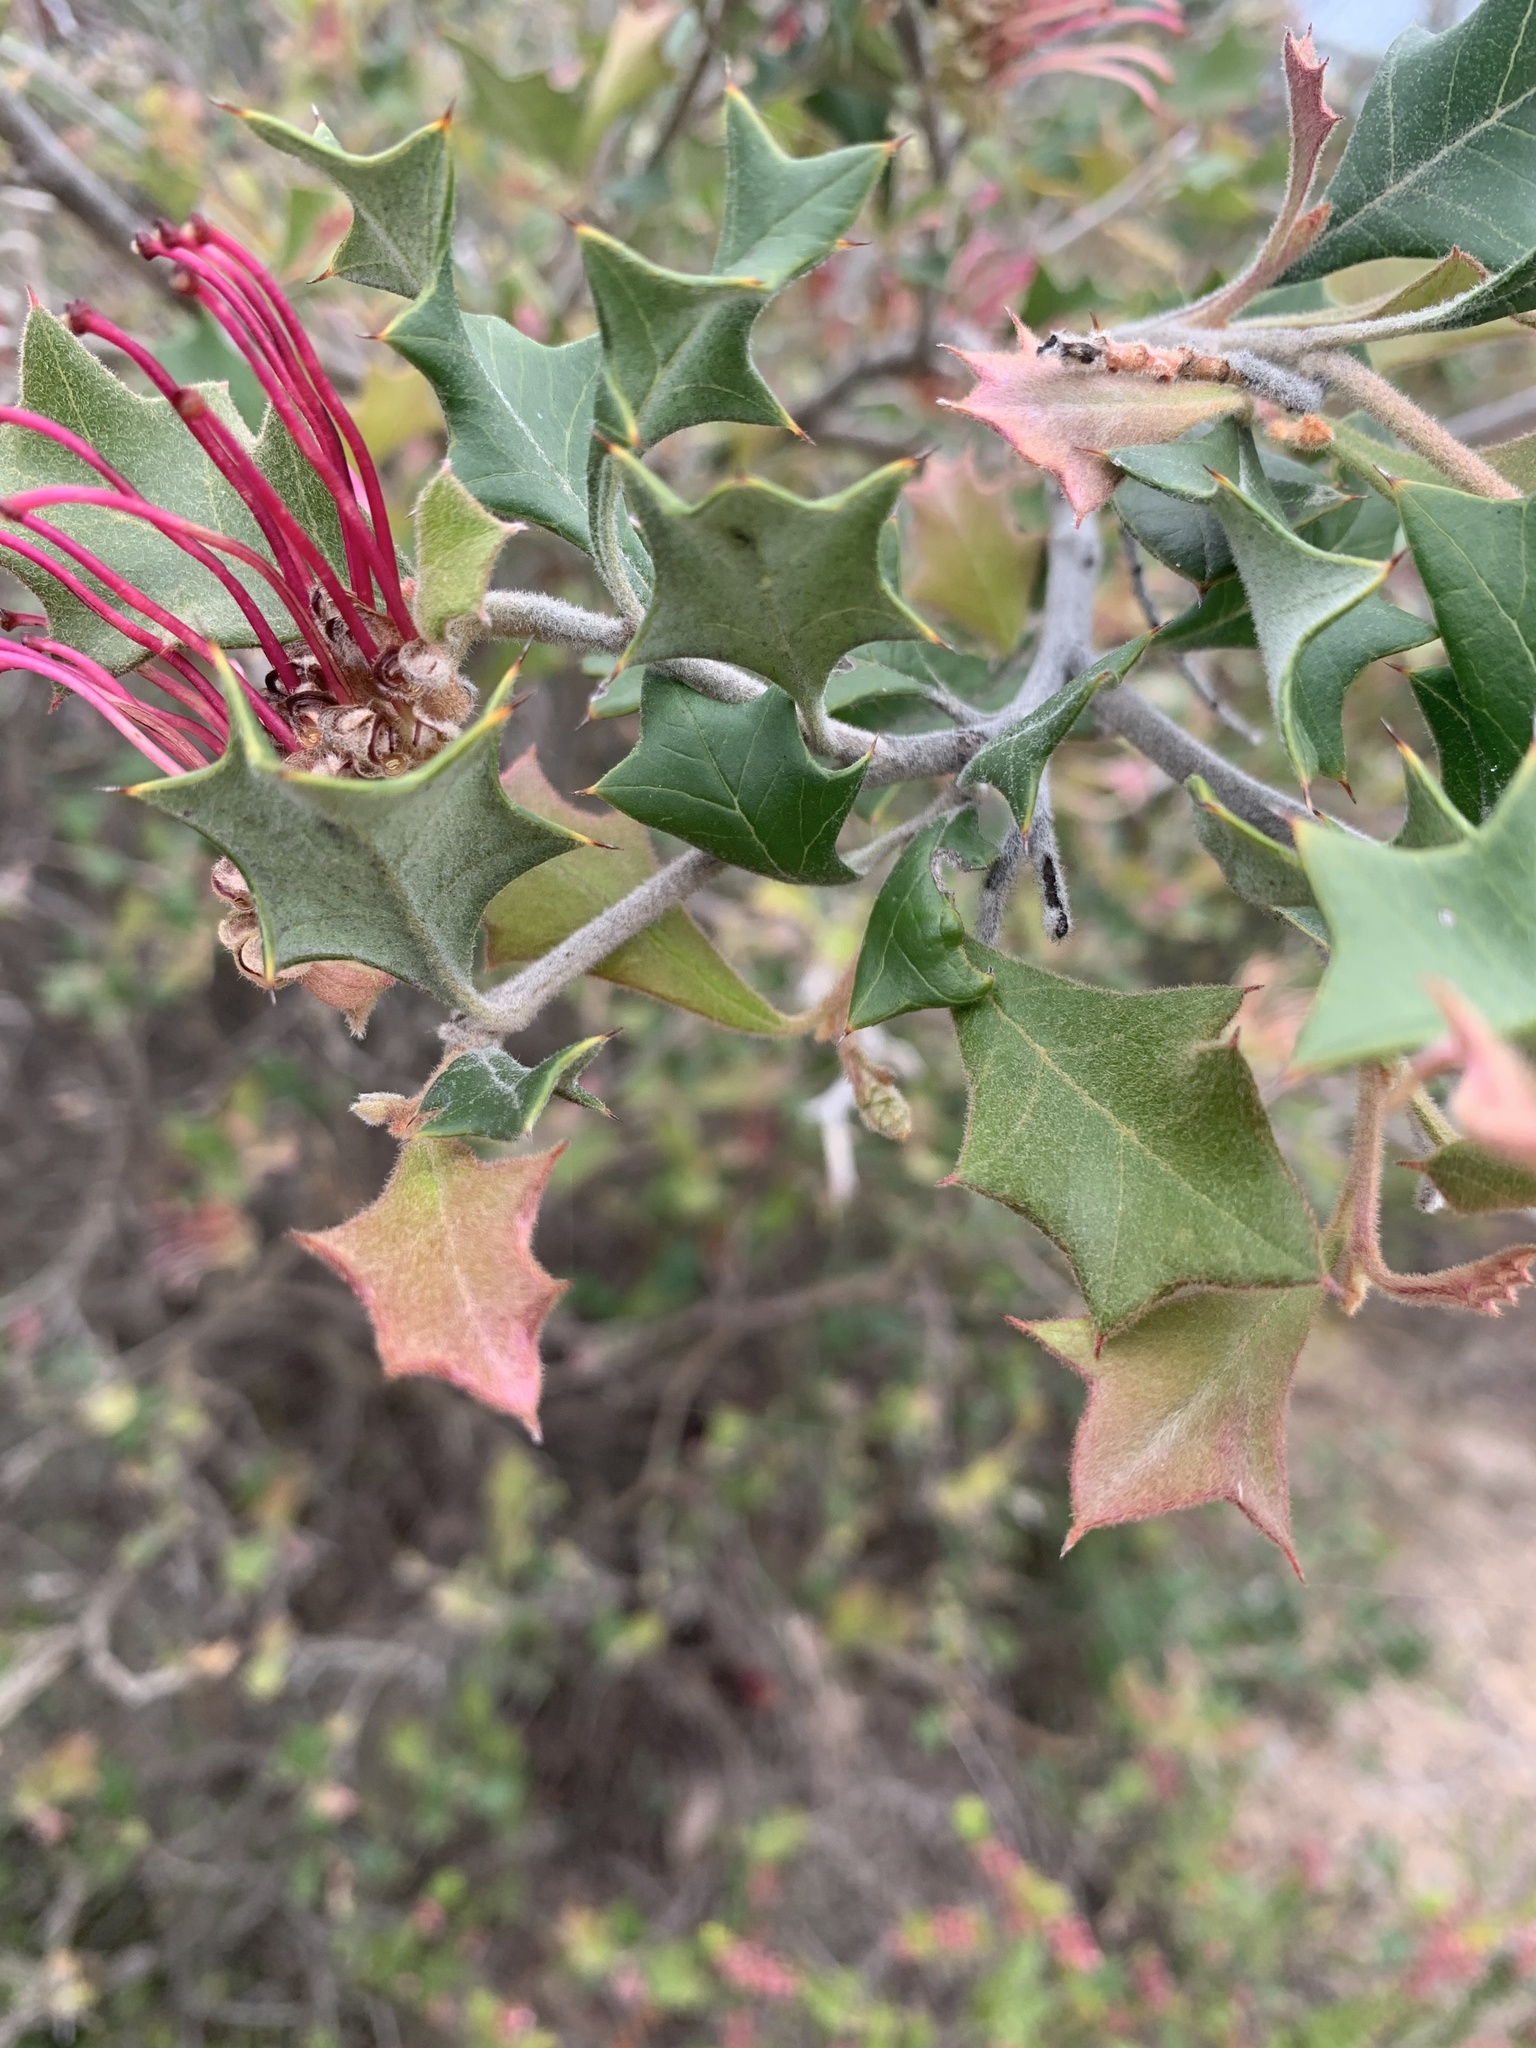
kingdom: Plantae
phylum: Tracheophyta
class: Magnoliopsida
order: Proteales
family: Proteaceae
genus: Grevillea
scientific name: Grevillea aquifolium
